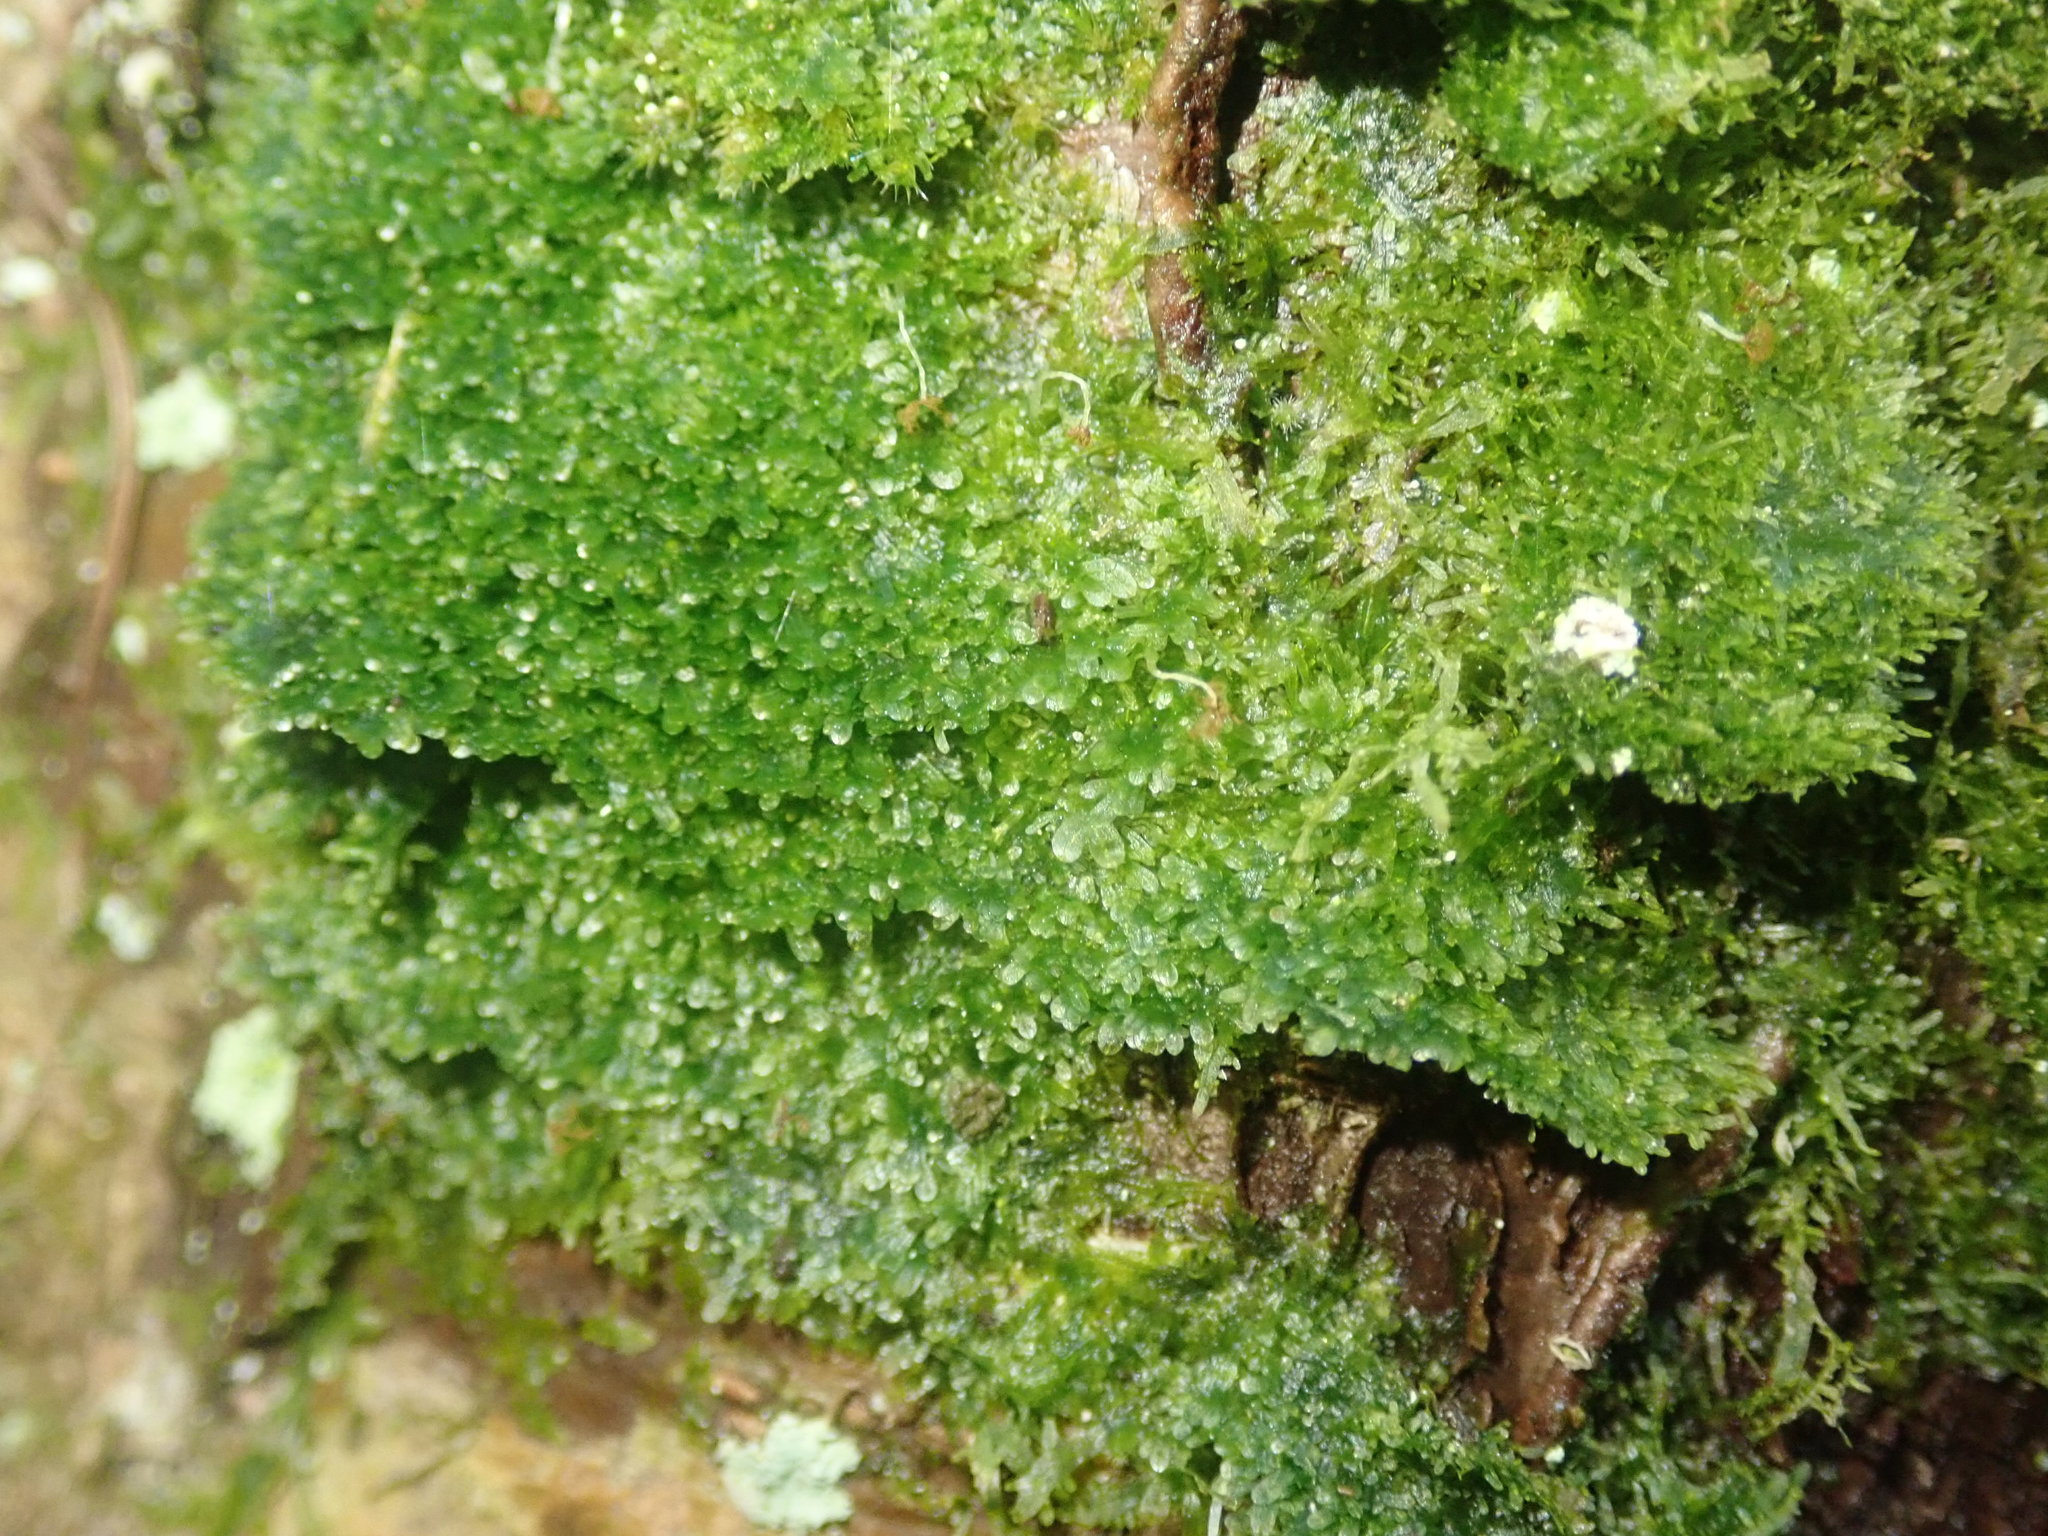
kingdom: Plantae
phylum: Marchantiophyta
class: Jungermanniopsida
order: Metzgeriales
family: Metzgeriaceae
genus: Metzgeria
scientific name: Metzgeria furcata
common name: Forked veilwort
